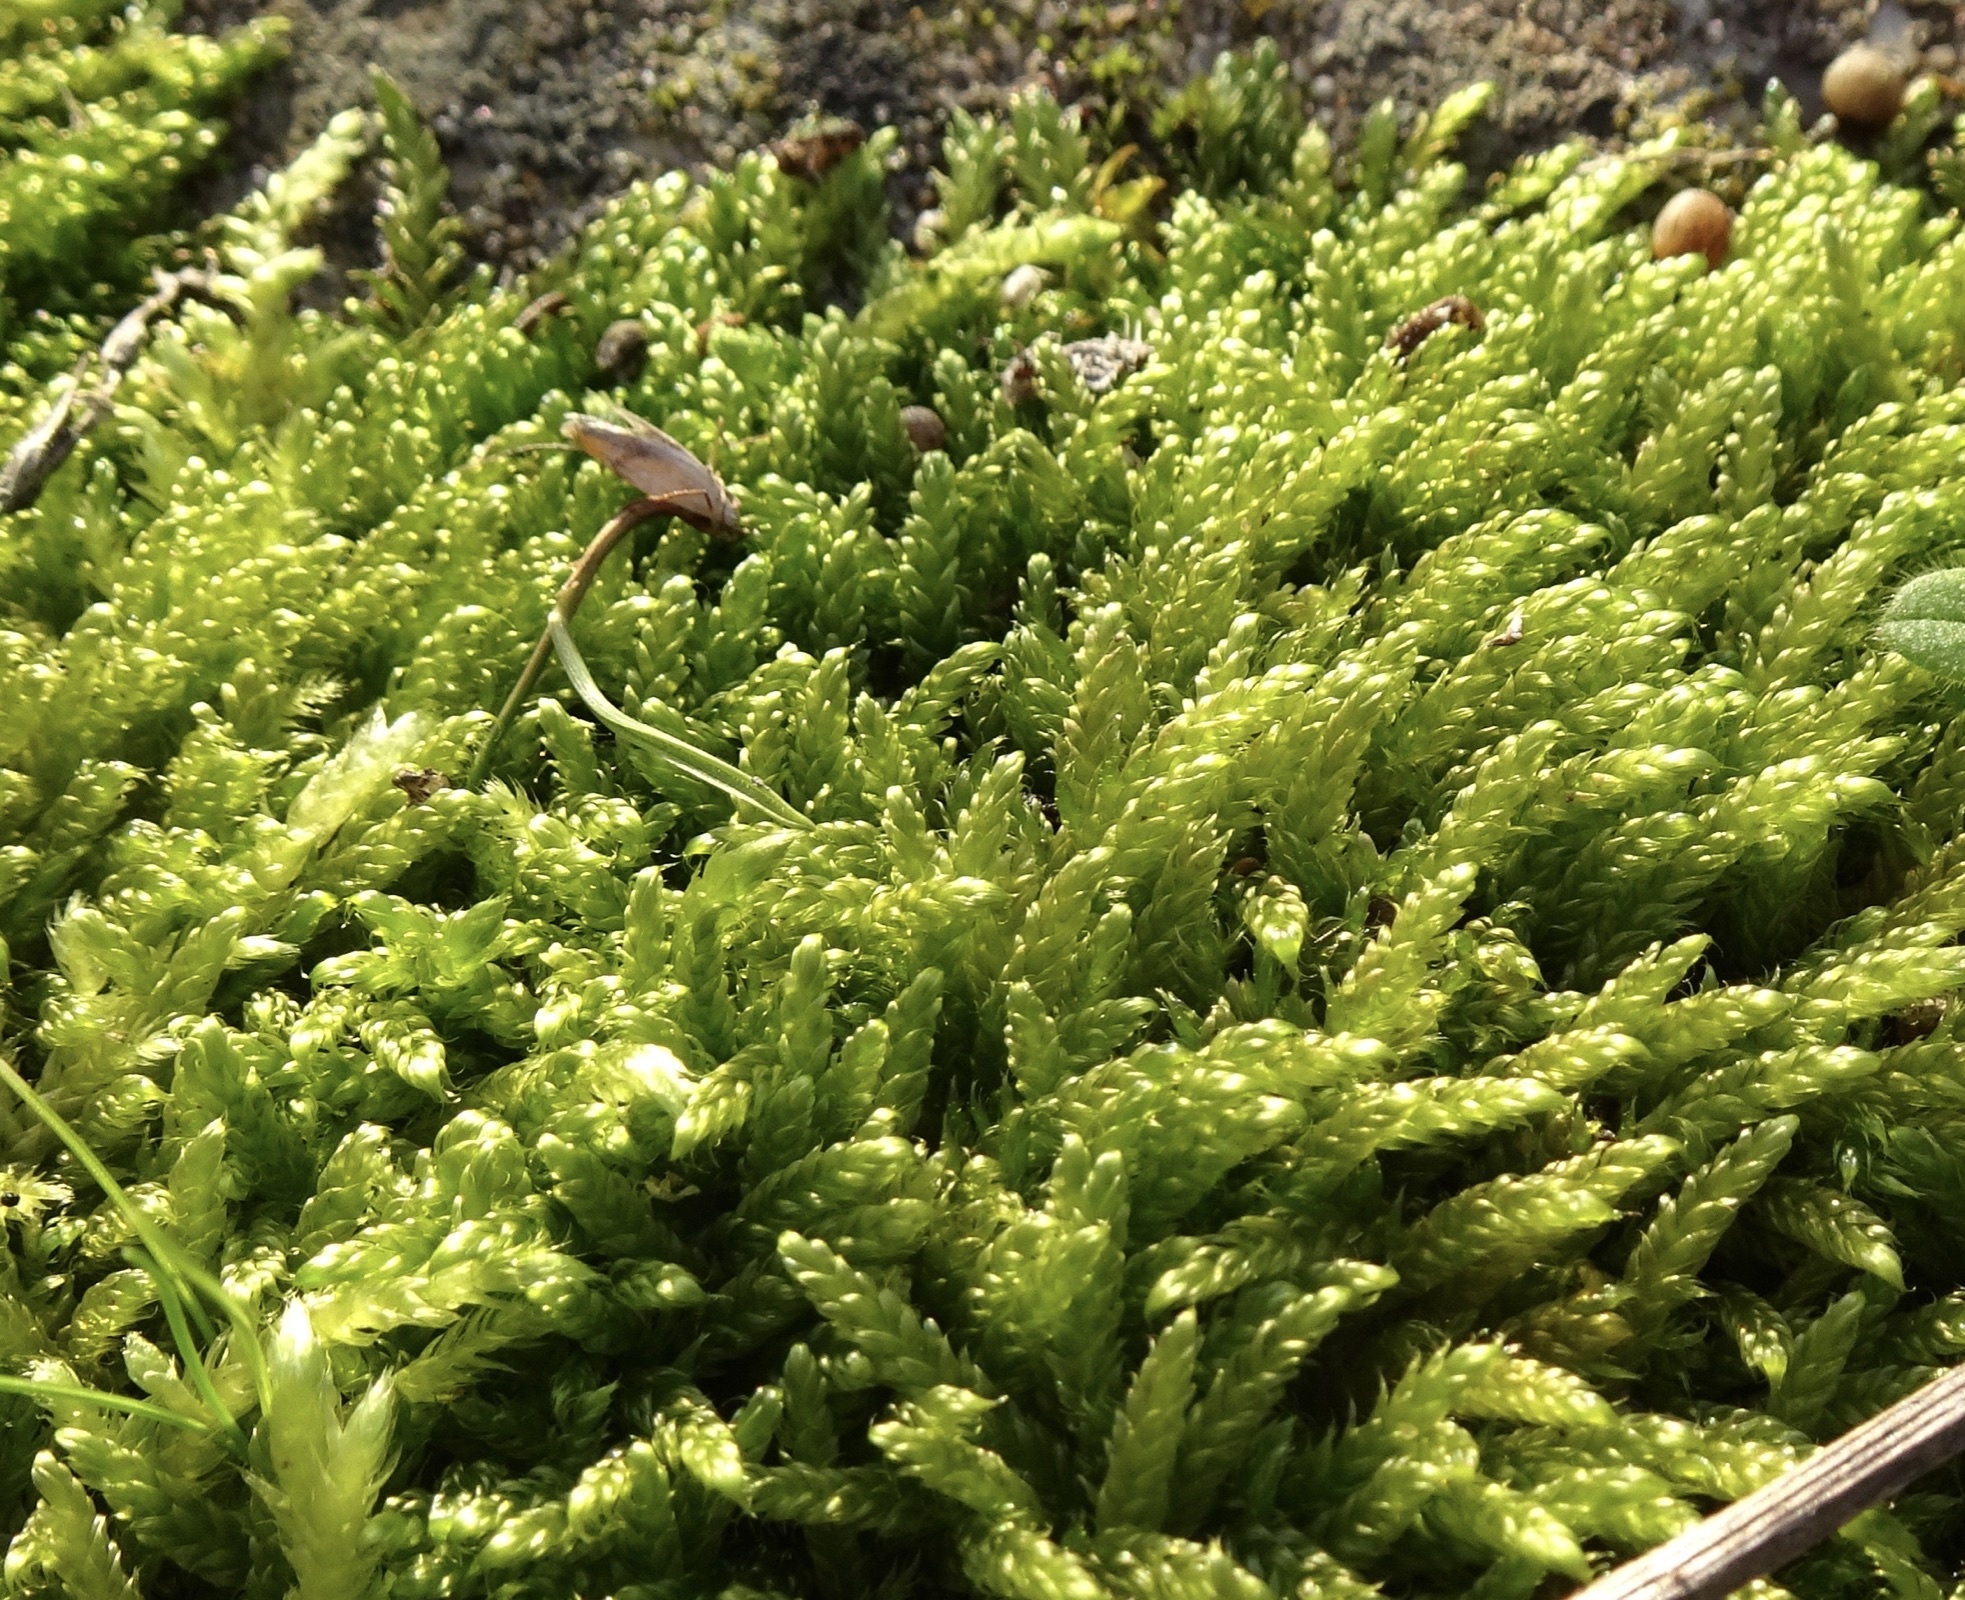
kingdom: Plantae
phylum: Bryophyta
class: Bryopsida
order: Hypnales
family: Hypnaceae
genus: Hypnum
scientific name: Hypnum cupressiforme
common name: Cypress-leaved plait-moss
